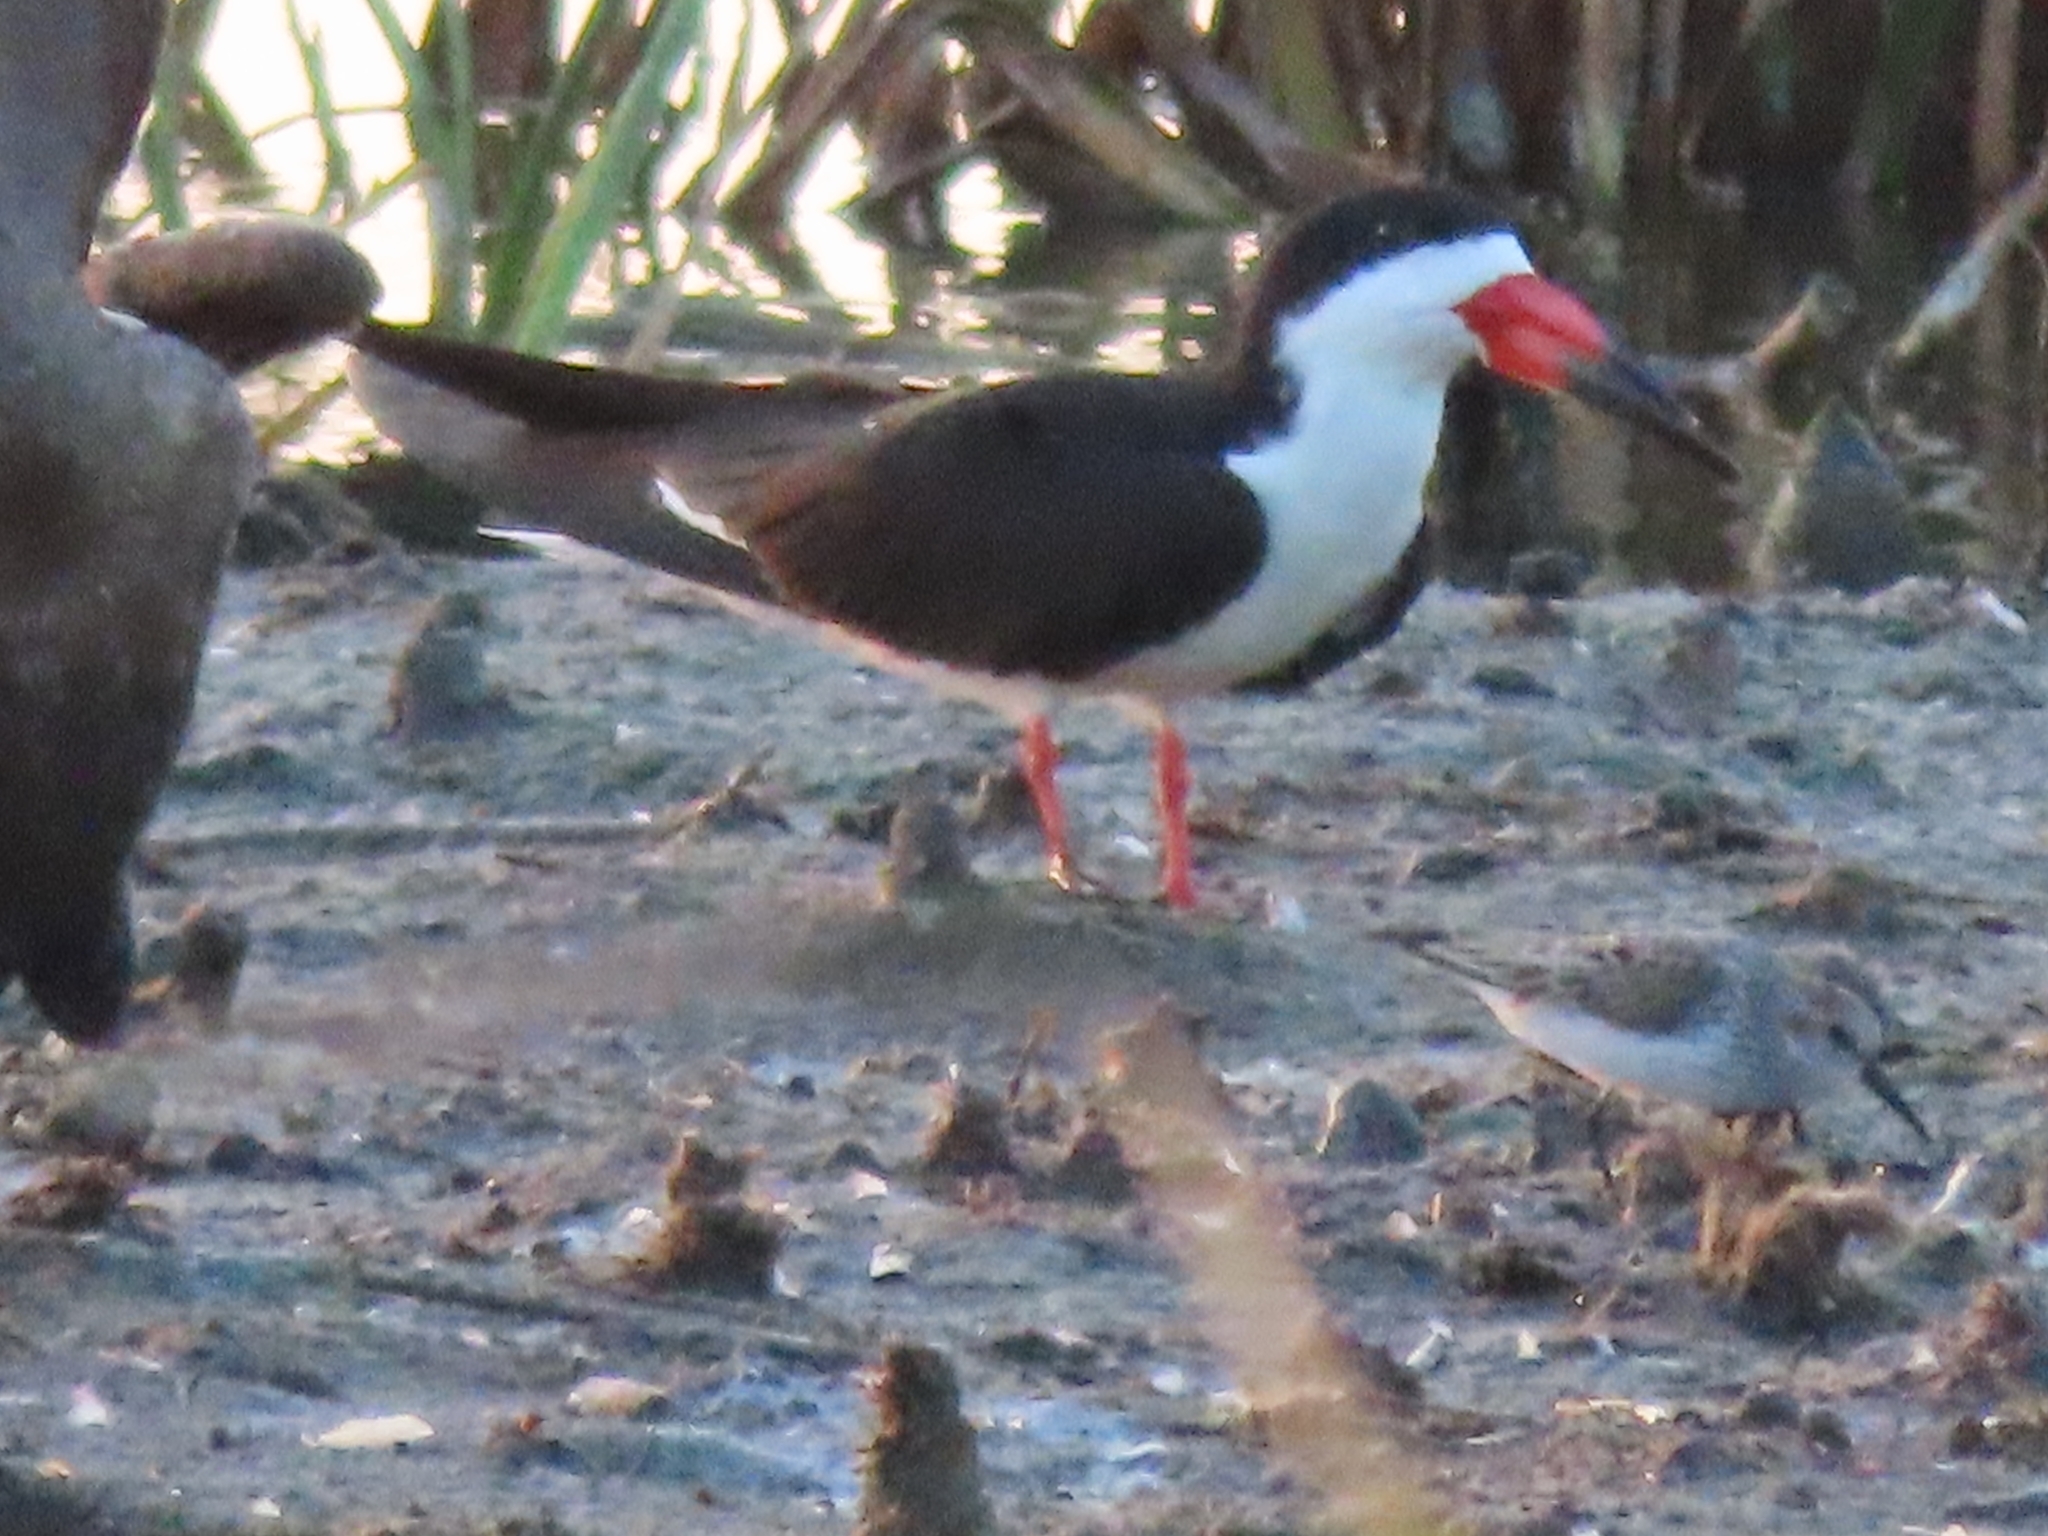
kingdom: Animalia
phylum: Chordata
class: Aves
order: Charadriiformes
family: Laridae
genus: Rynchops
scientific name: Rynchops niger
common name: Black skimmer
